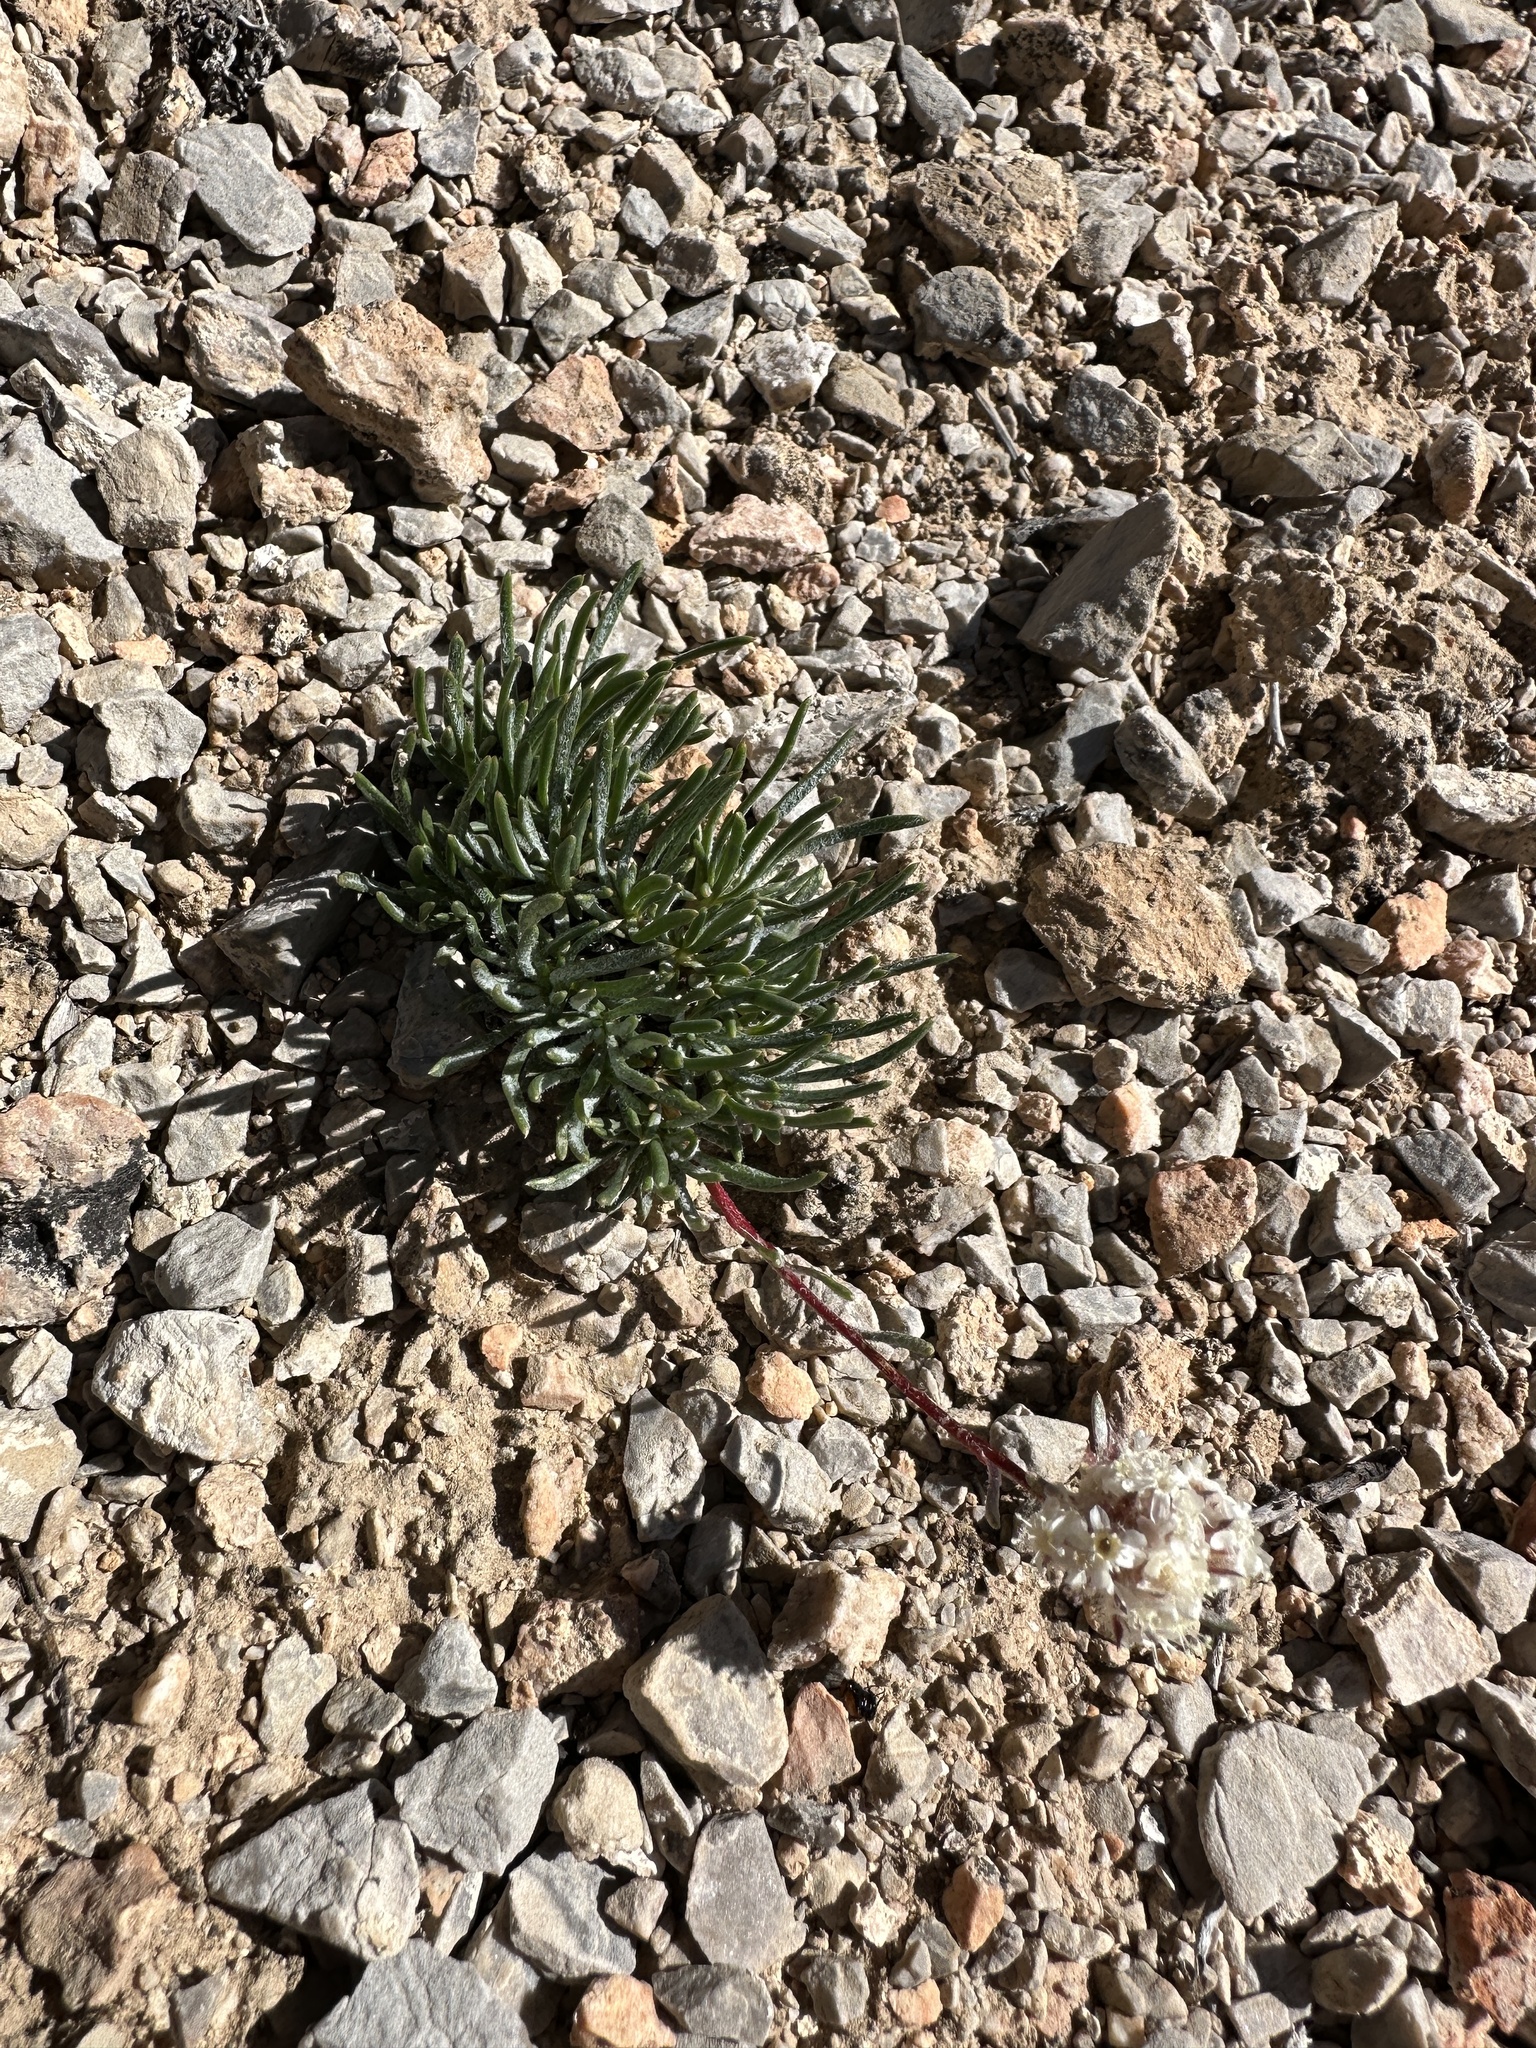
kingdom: Plantae
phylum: Tracheophyta
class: Magnoliopsida
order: Ericales
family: Polemoniaceae
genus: Ipomopsis
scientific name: Ipomopsis congesta
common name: Ball-head gilia
